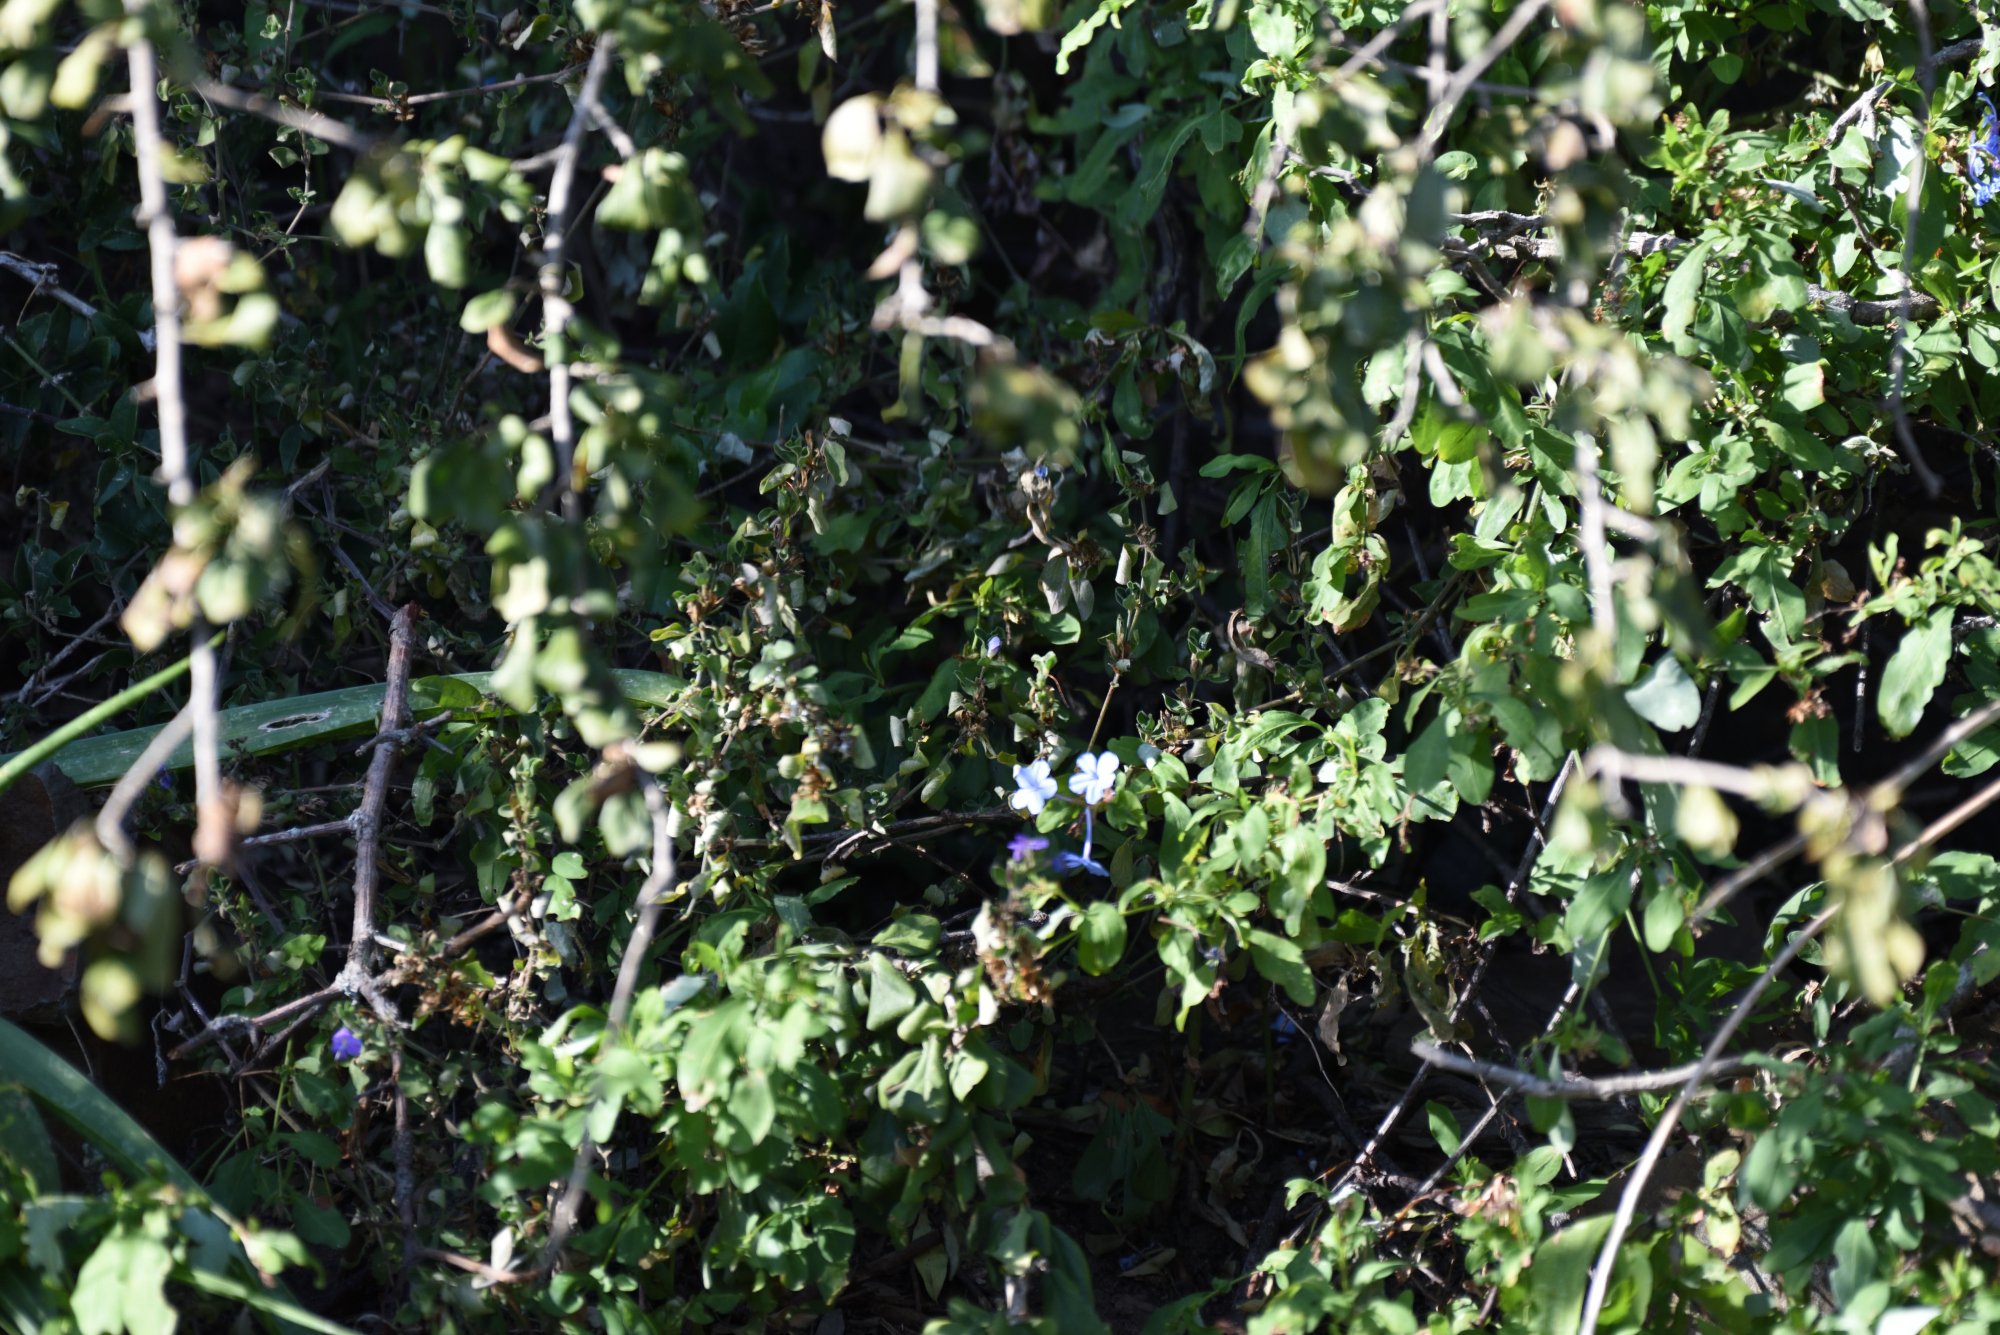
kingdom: Plantae
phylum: Tracheophyta
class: Magnoliopsida
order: Caryophyllales
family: Plumbaginaceae
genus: Plumbago
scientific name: Plumbago auriculata
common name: Cape leadwort
